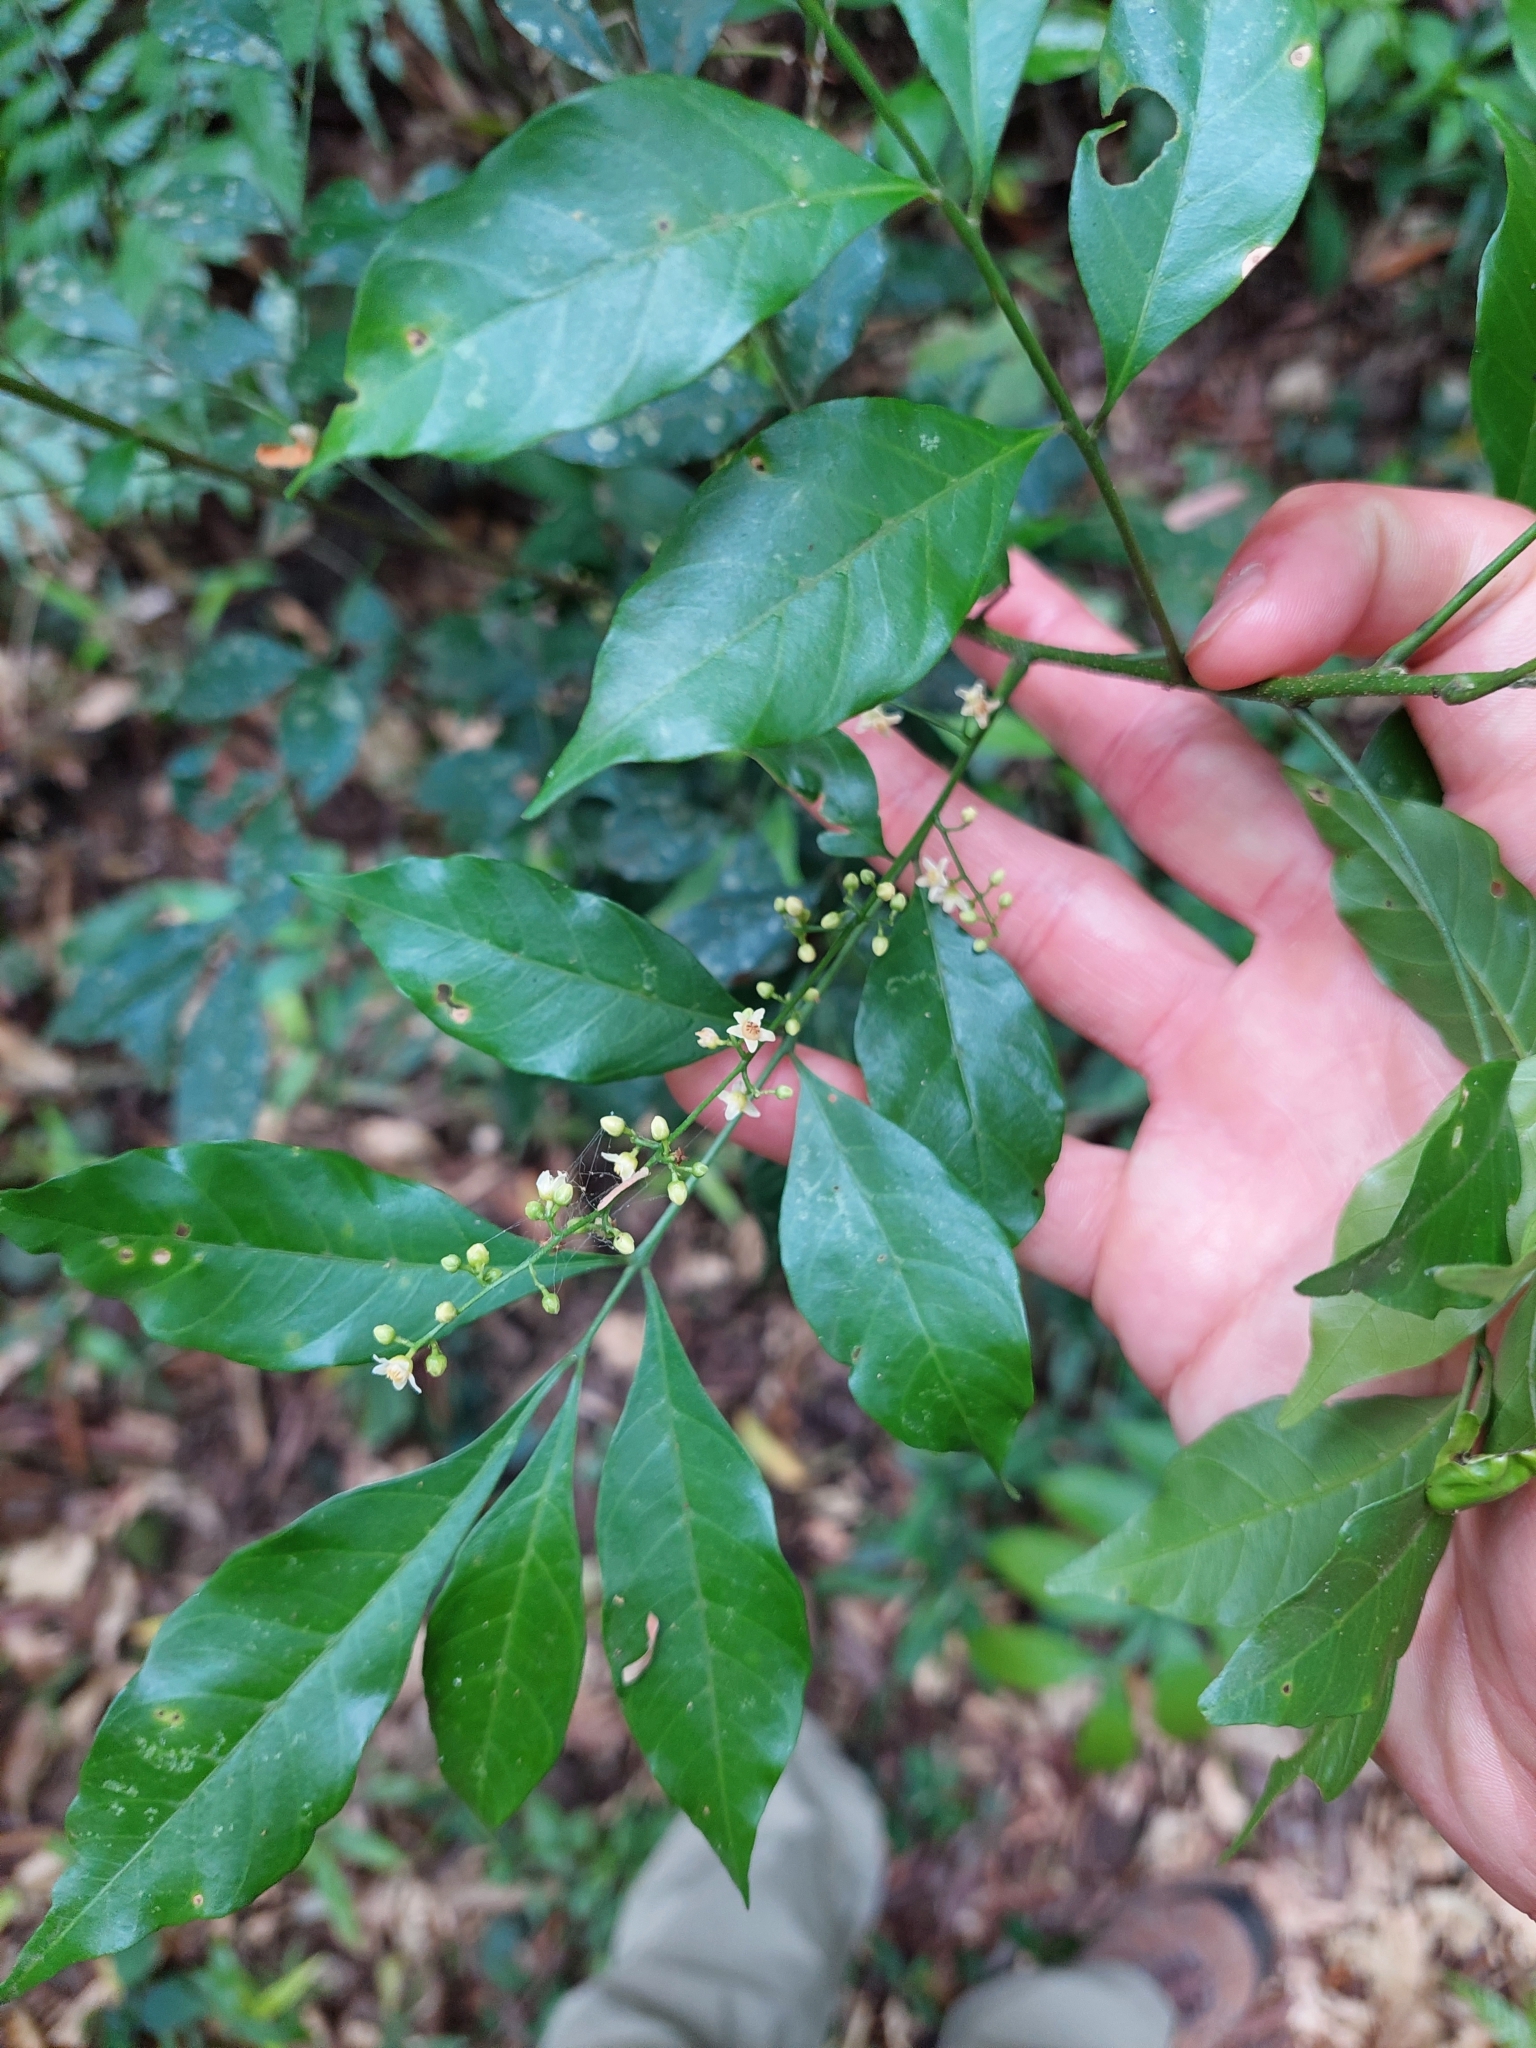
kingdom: Plantae
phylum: Tracheophyta
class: Magnoliopsida
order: Sapindales
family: Meliaceae
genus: Trichilia
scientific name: Trichilia elegans
